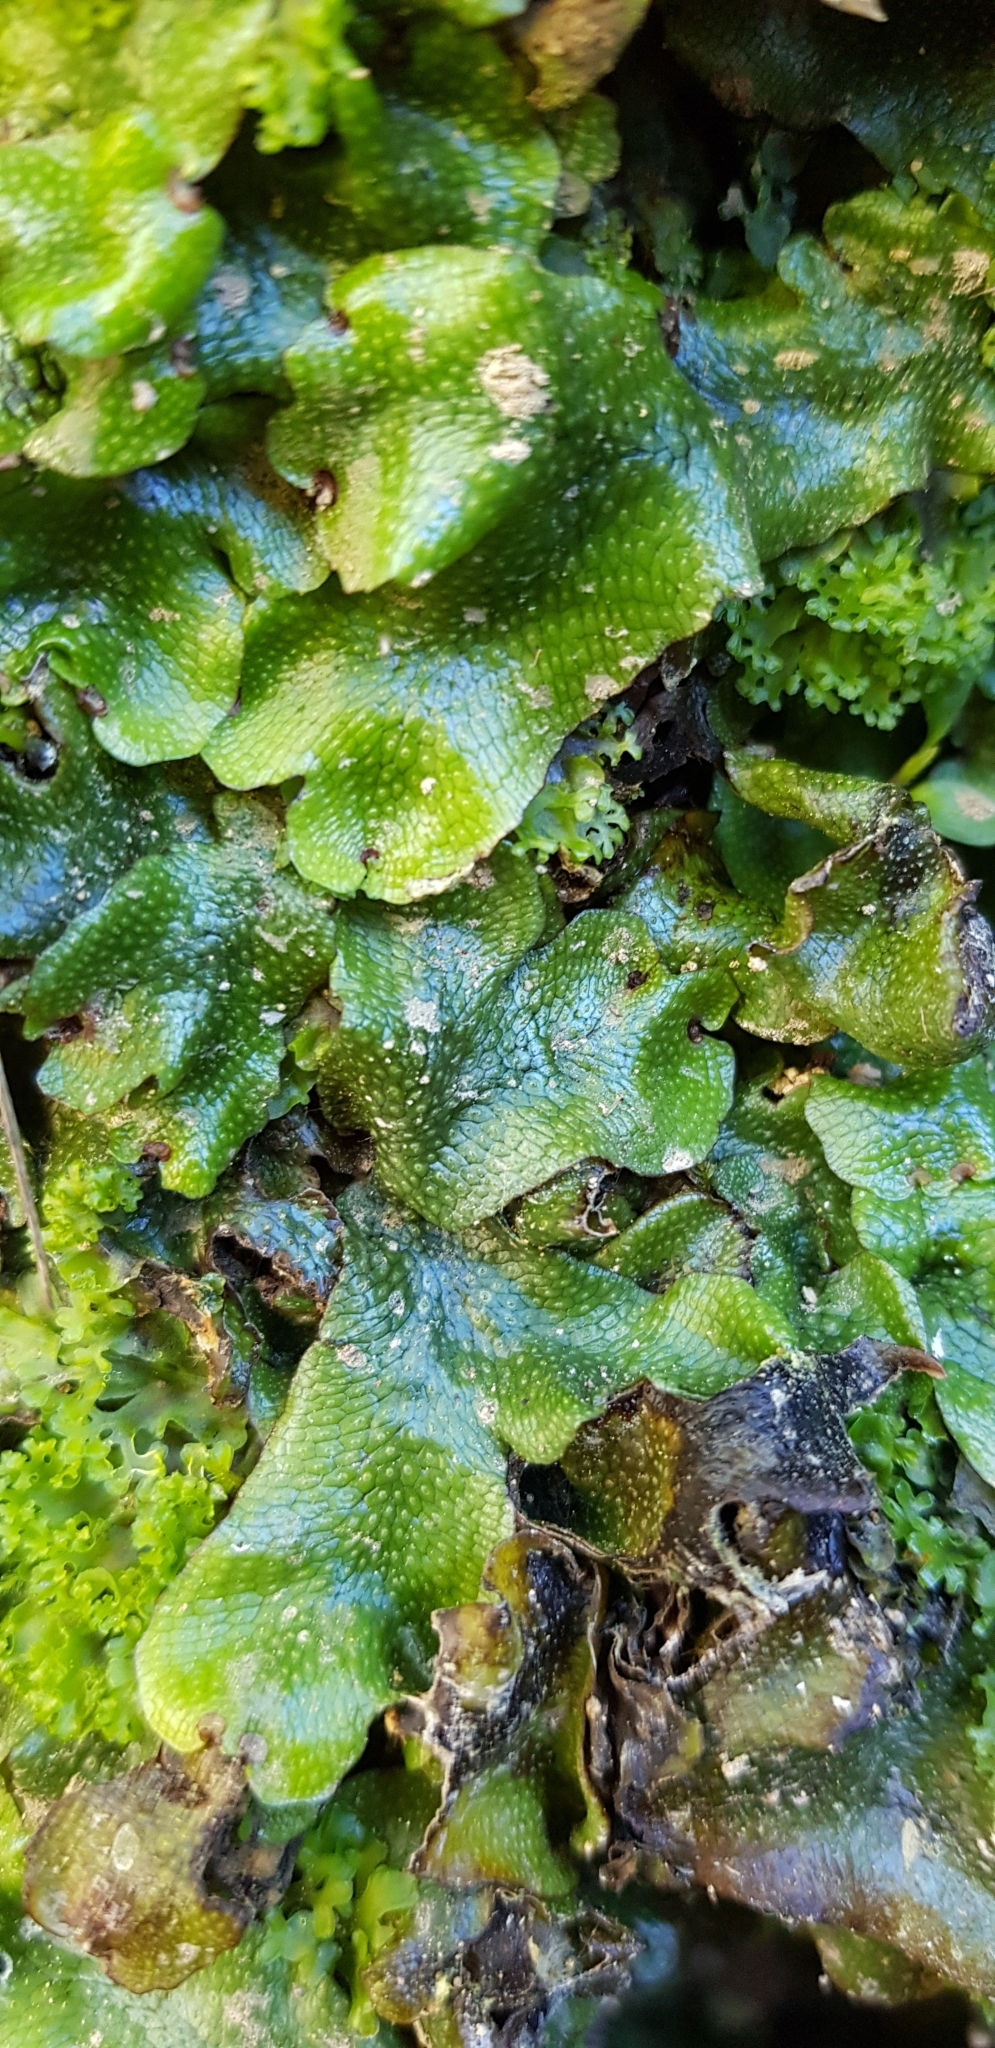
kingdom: Plantae
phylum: Marchantiophyta
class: Marchantiopsida
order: Marchantiales
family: Conocephalaceae
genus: Conocephalum
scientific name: Conocephalum conicum
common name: Great scented liverwort
